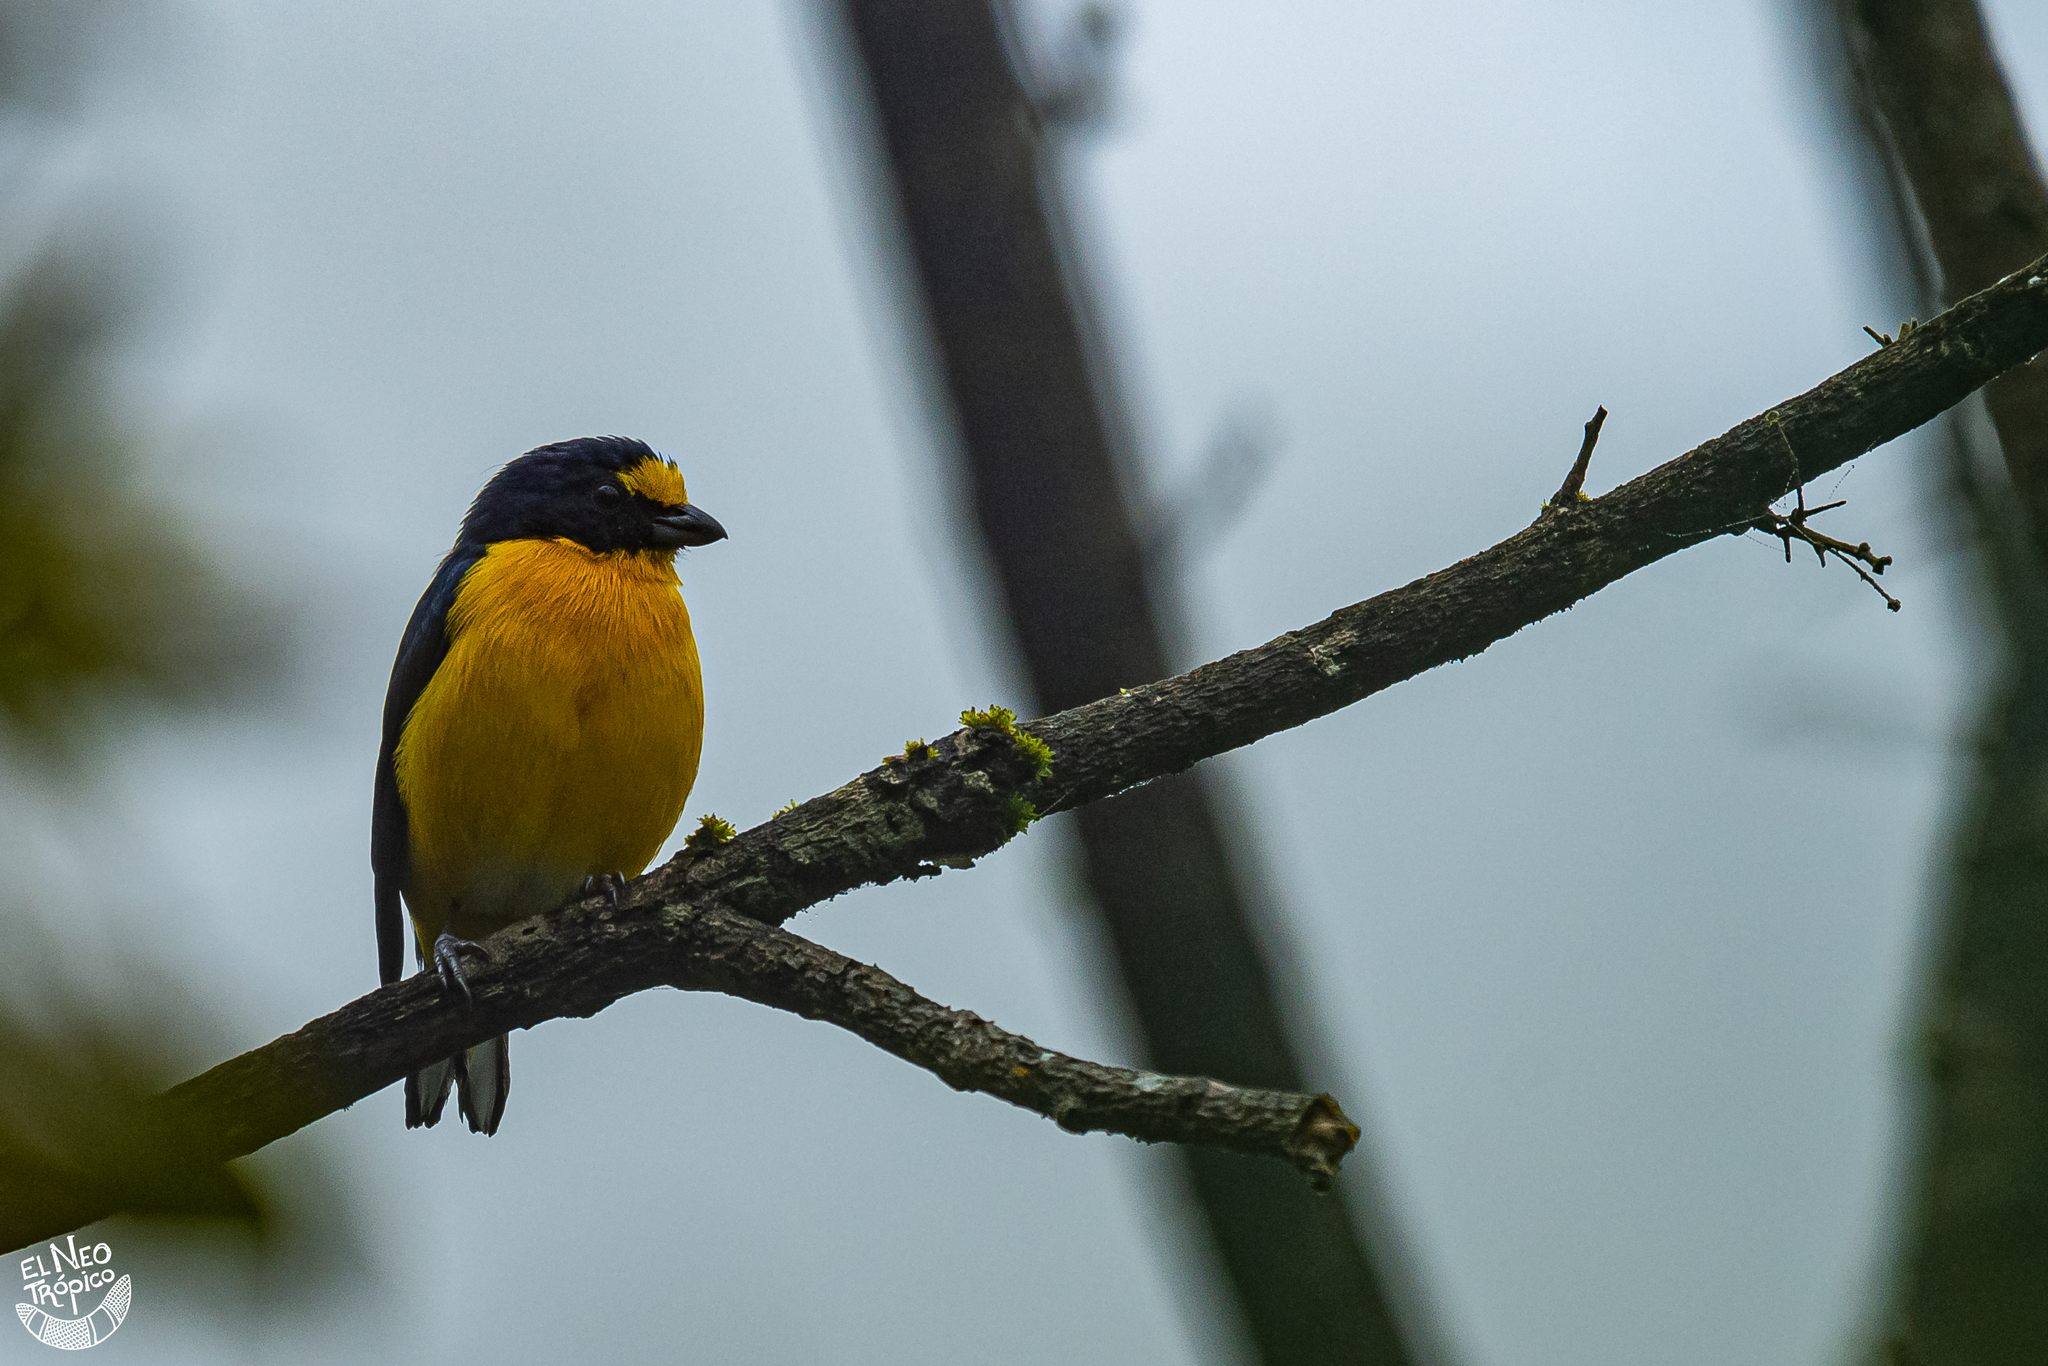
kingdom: Animalia
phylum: Chordata
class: Aves
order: Passeriformes
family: Fringillidae
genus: Euphonia
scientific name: Euphonia hirundinacea
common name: Yellow-throated euphonia
